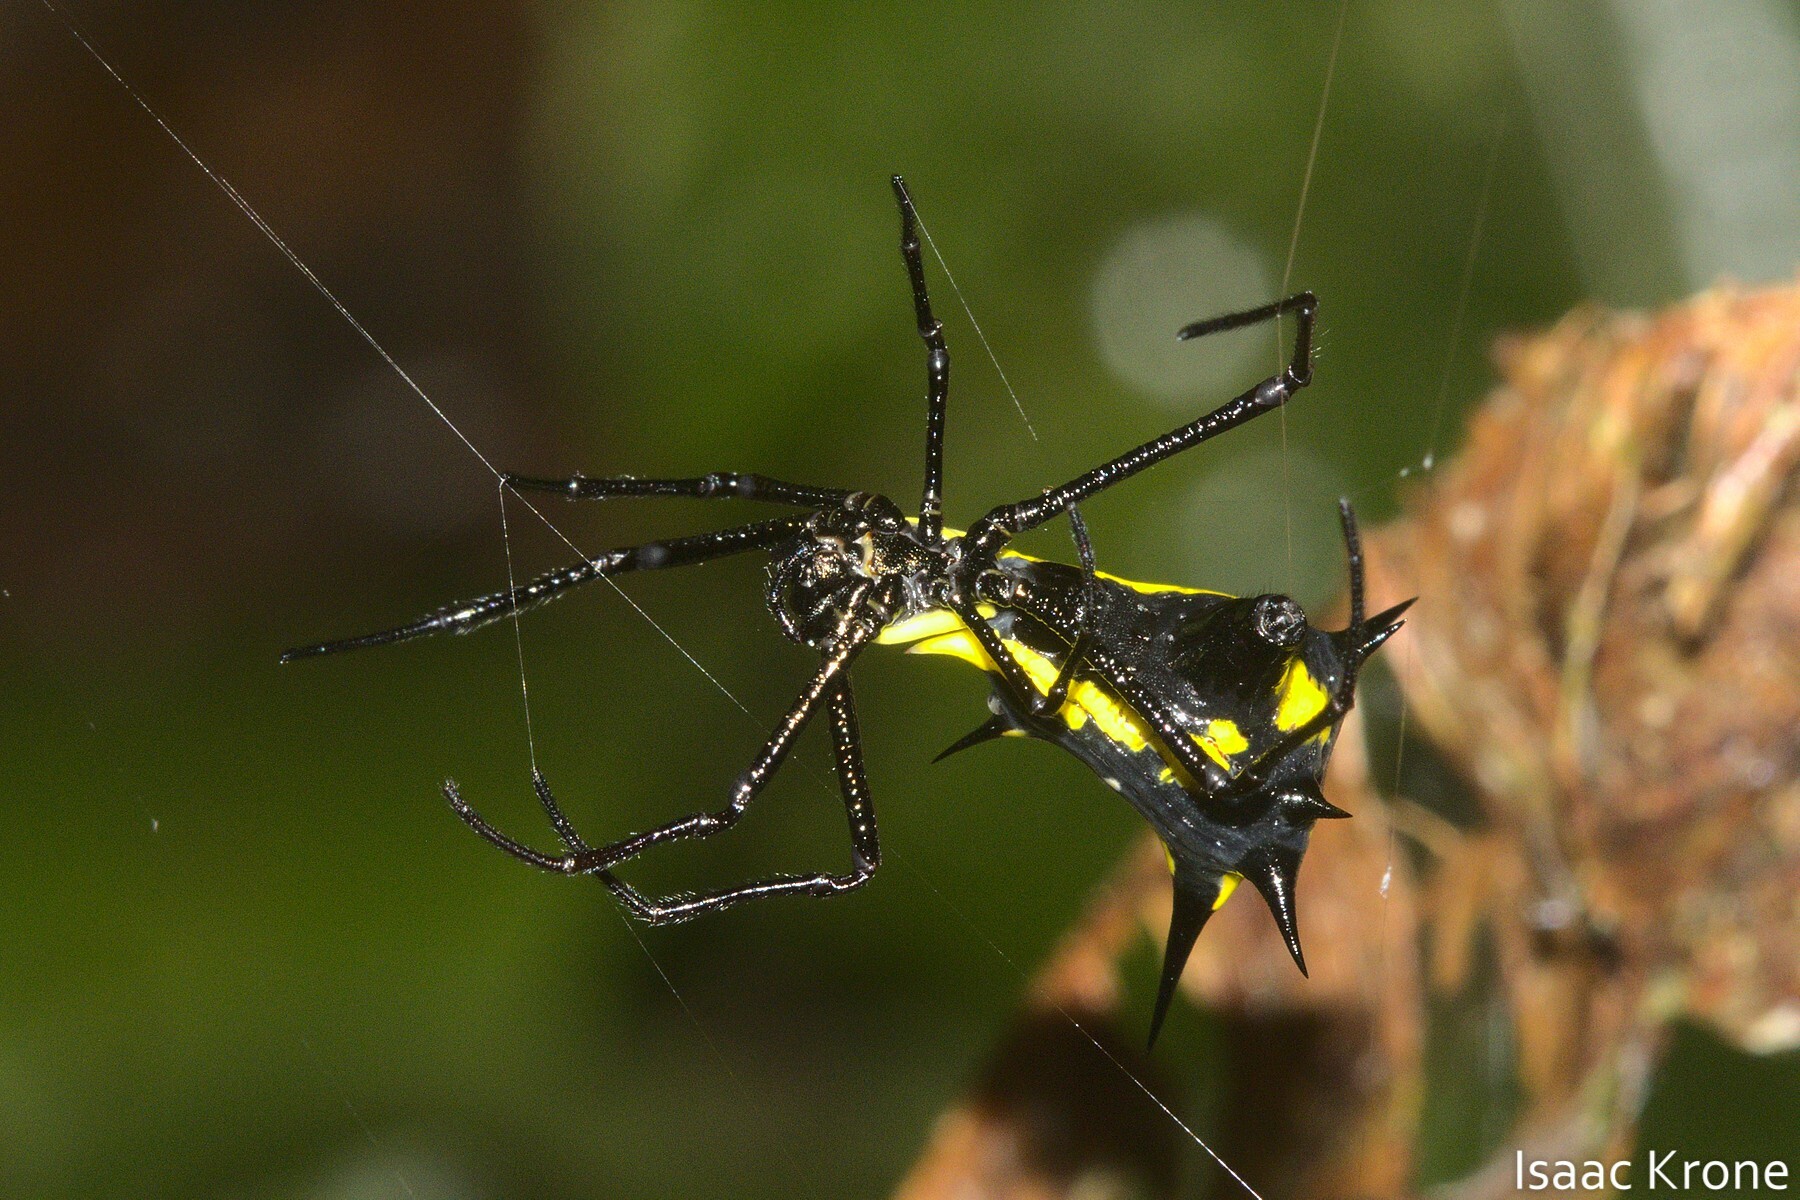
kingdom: Animalia
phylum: Arthropoda
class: Arachnida
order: Araneae
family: Araneidae
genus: Micrathena
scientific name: Micrathena vigorsi
